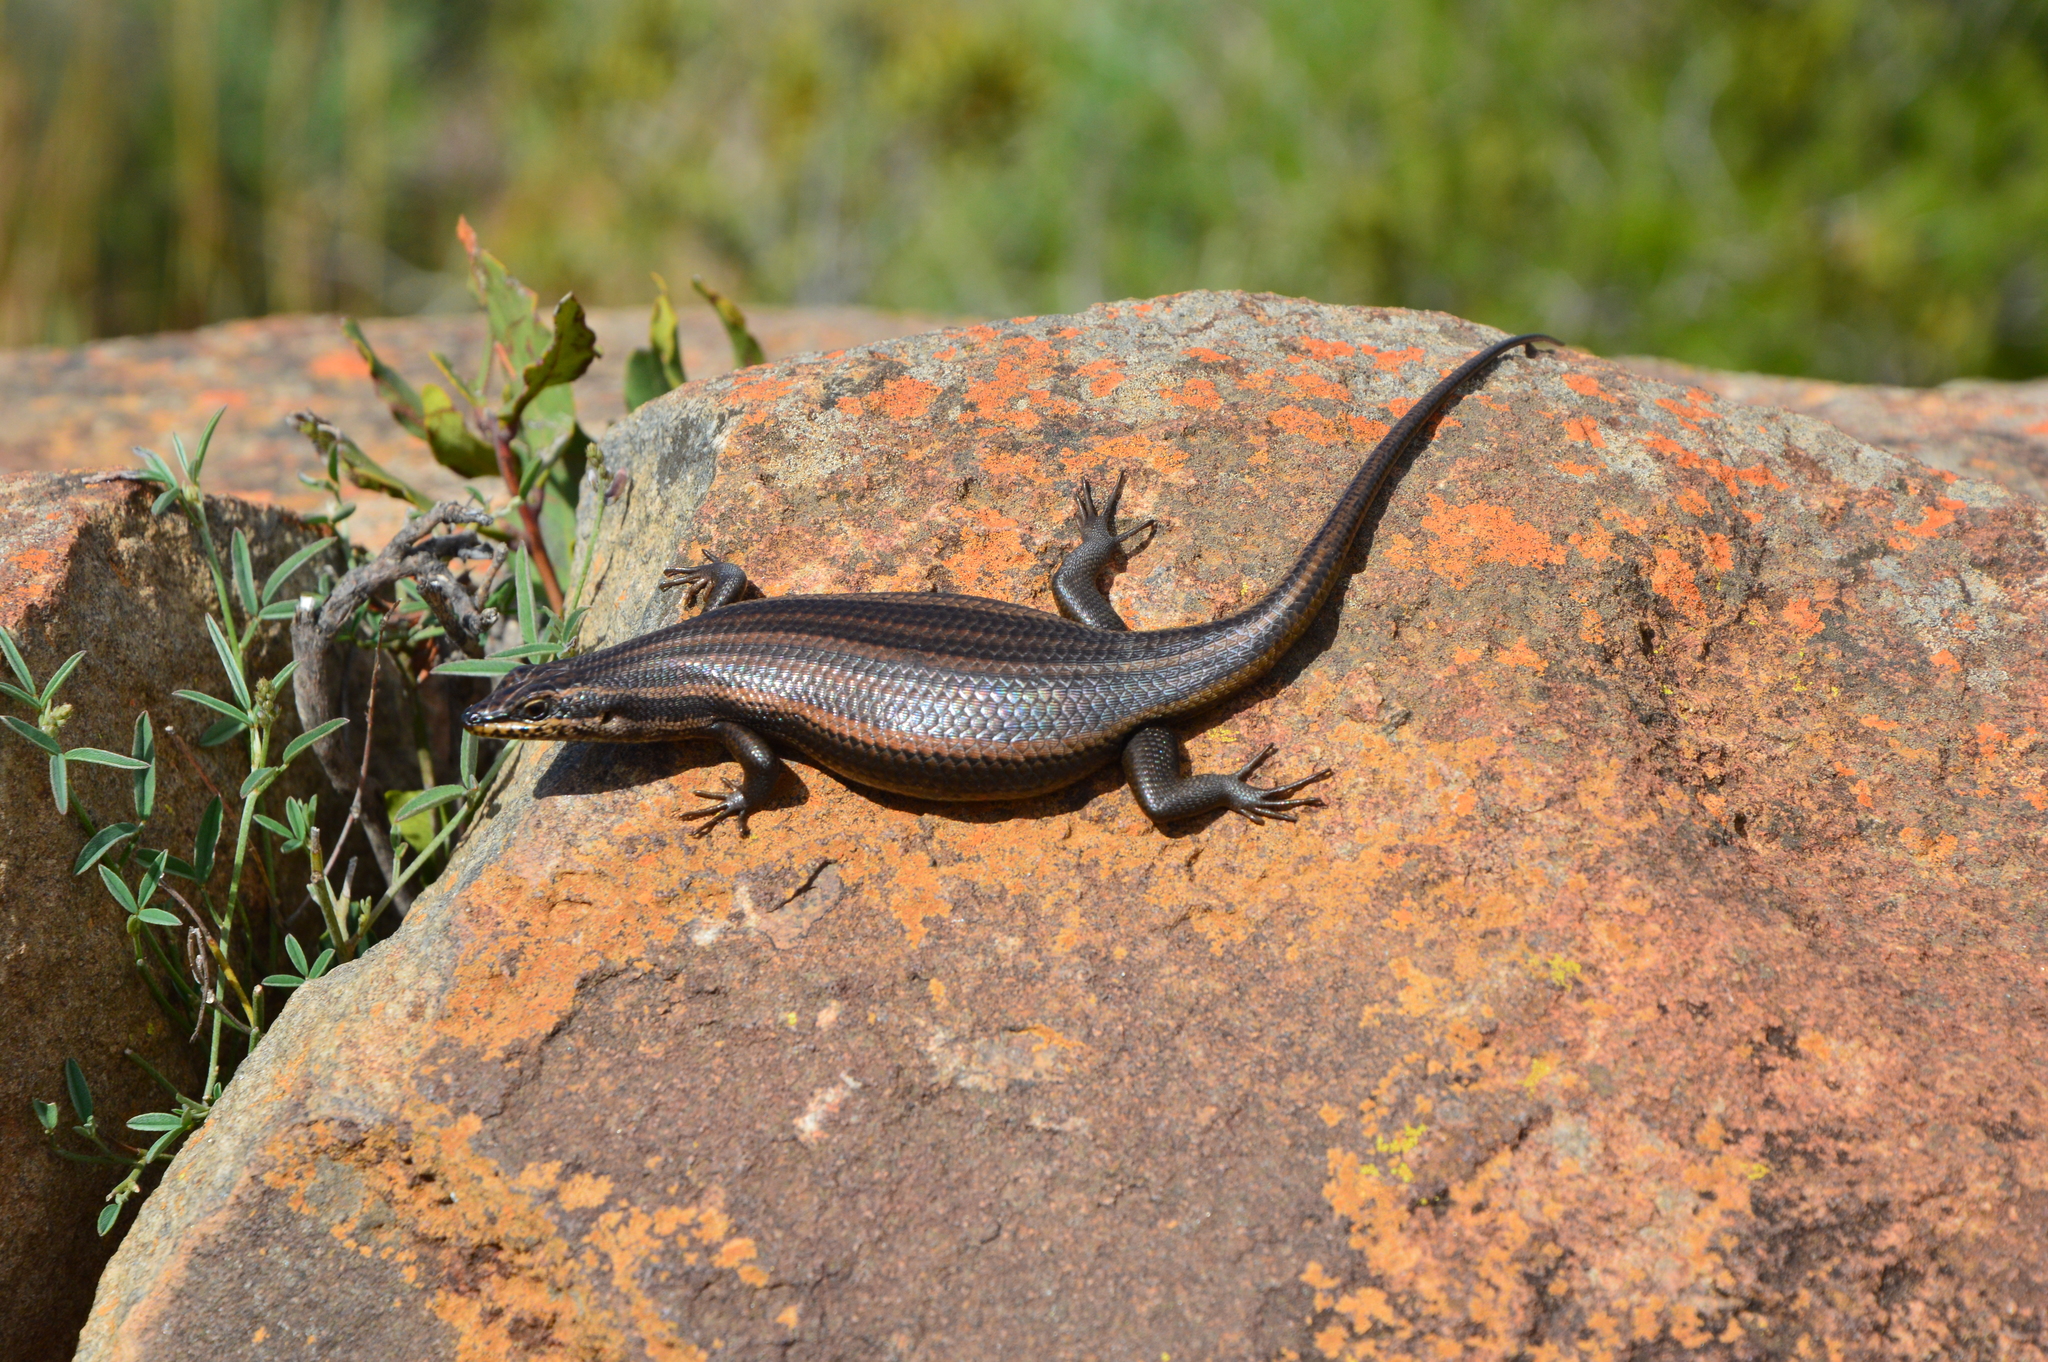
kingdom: Animalia
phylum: Chordata
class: Squamata
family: Scincidae
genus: Trachylepis
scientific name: Trachylepis sulcata
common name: Western rock skink
